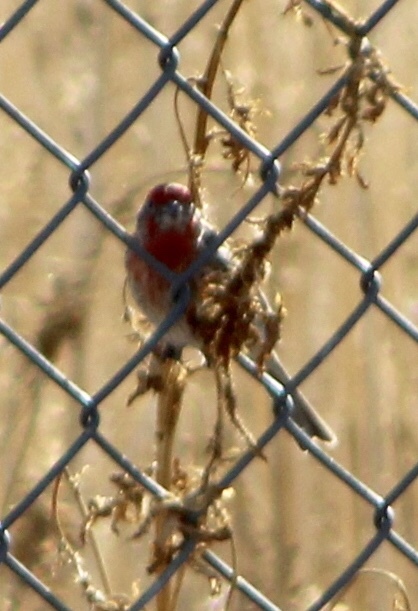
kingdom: Animalia
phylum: Chordata
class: Aves
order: Passeriformes
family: Fringillidae
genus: Haemorhous
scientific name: Haemorhous mexicanus
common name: House finch
